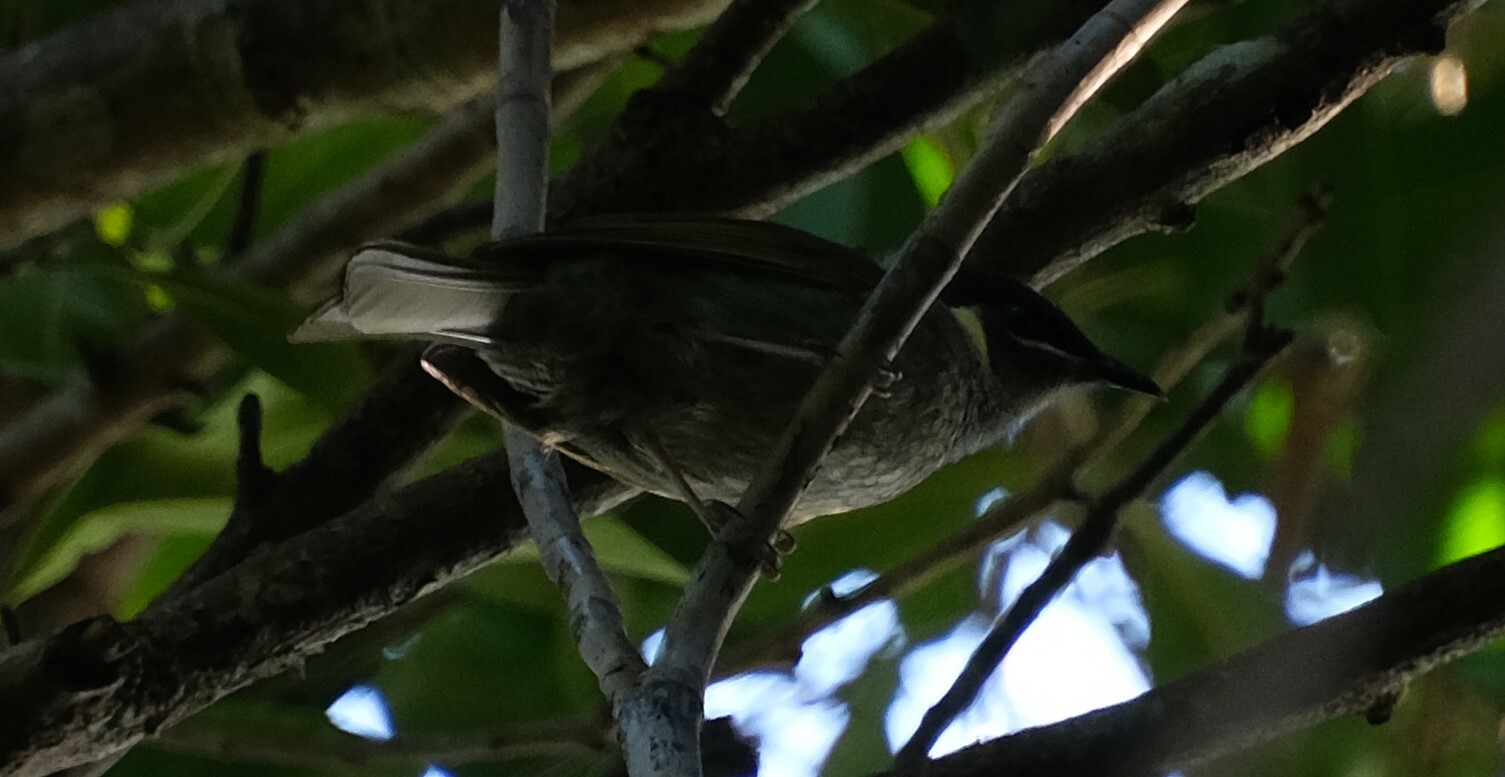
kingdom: Animalia
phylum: Chordata
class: Aves
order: Passeriformes
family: Meliphagidae
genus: Meliphaga
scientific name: Meliphaga lewinii
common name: Lewin's honeyeater
